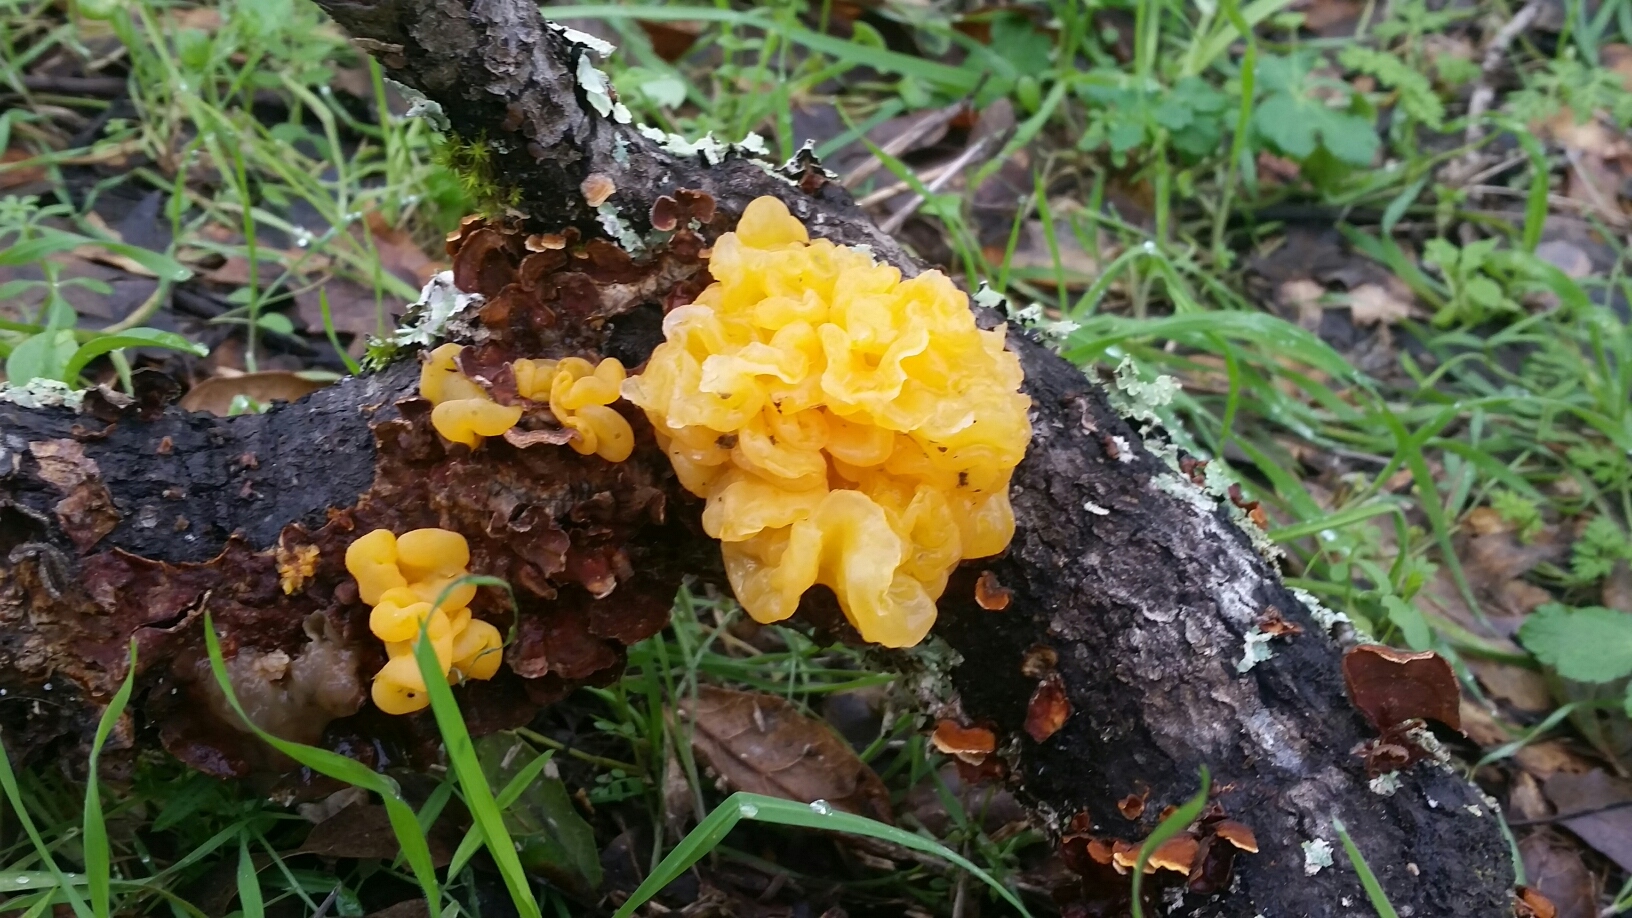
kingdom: Fungi
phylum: Basidiomycota
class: Tremellomycetes
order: Tremellales
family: Naemateliaceae
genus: Naematelia
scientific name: Naematelia aurantia
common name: Golden ear
